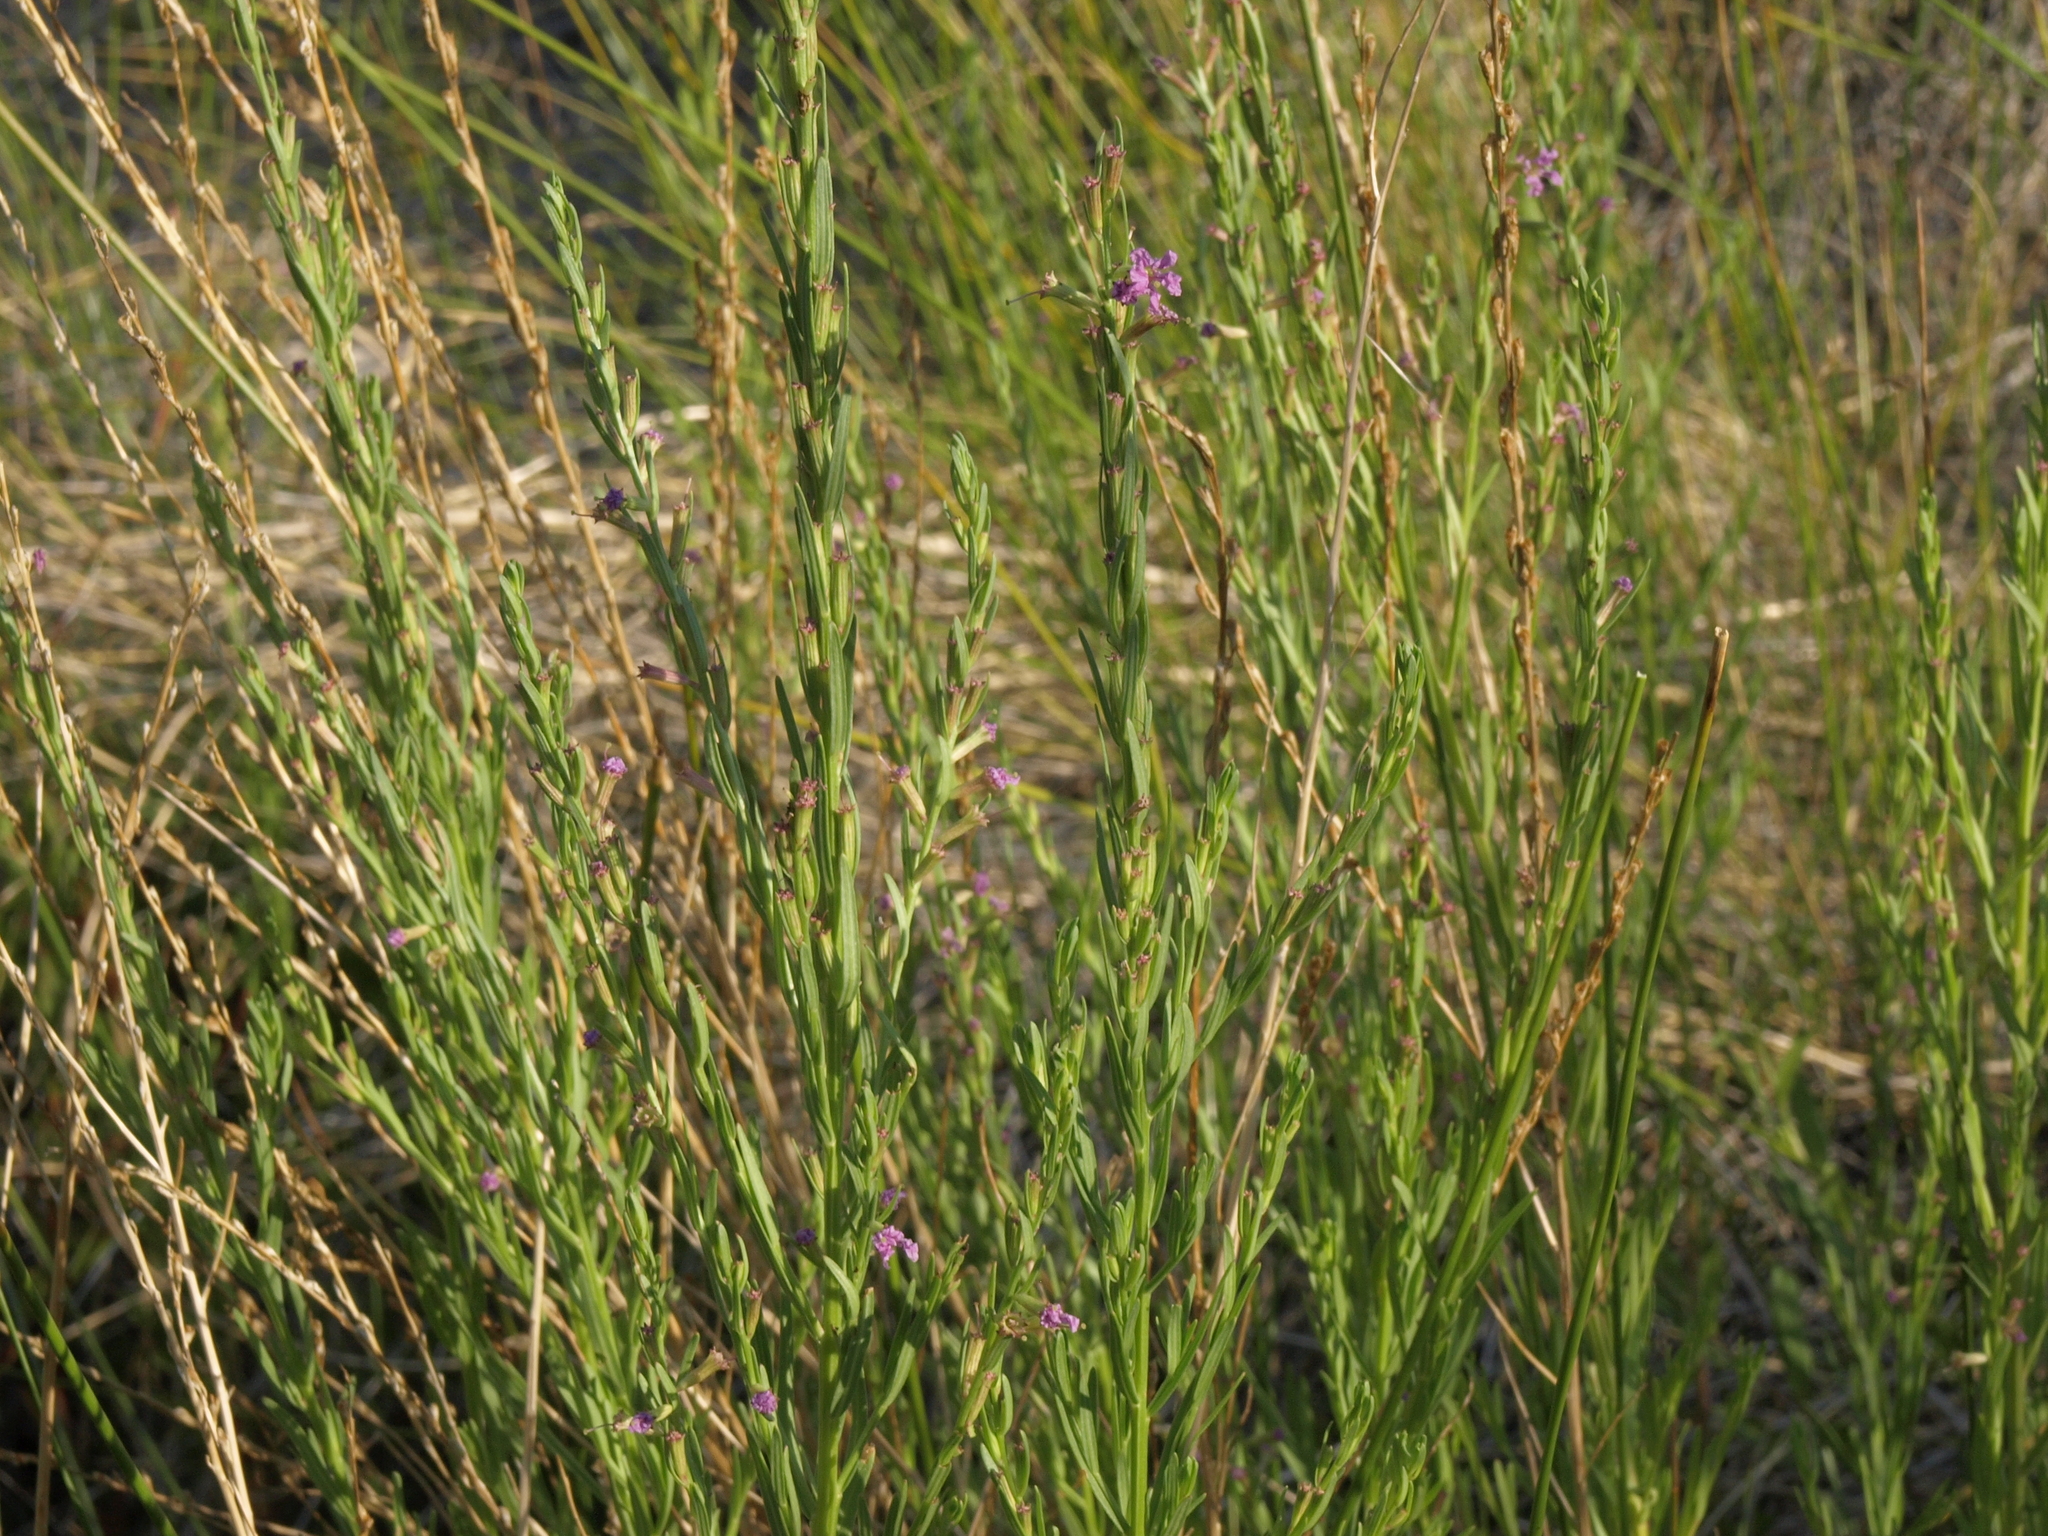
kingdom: Plantae
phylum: Tracheophyta
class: Magnoliopsida
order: Myrtales
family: Lythraceae
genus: Lythrum
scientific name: Lythrum californicum
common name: California loosestrife
